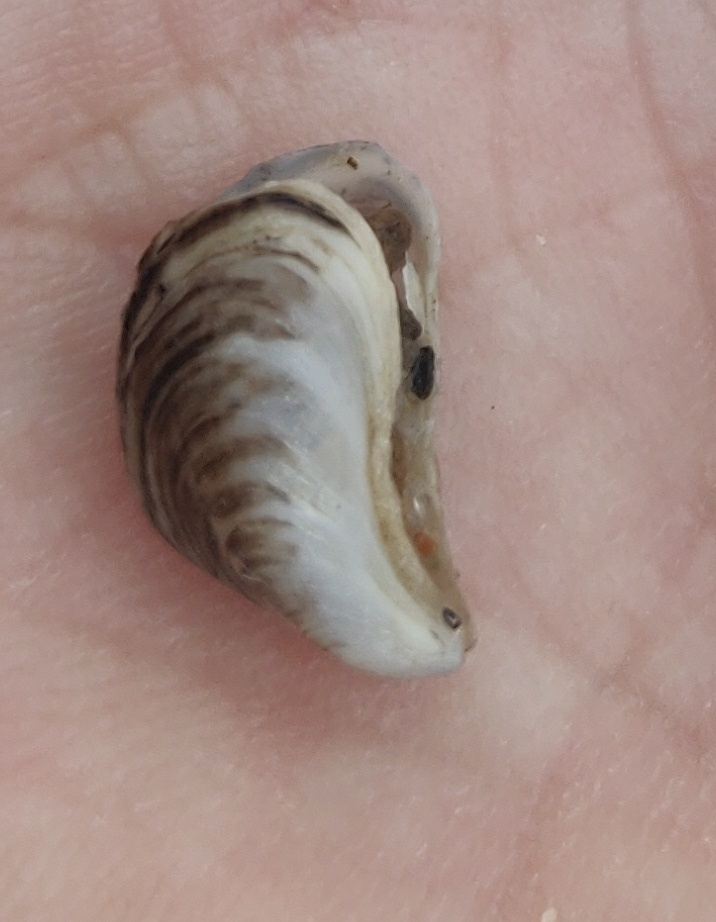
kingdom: Animalia
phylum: Mollusca
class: Bivalvia
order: Myida
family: Dreissenidae
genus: Dreissena
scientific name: Dreissena bugensis
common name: Quagga mussel
